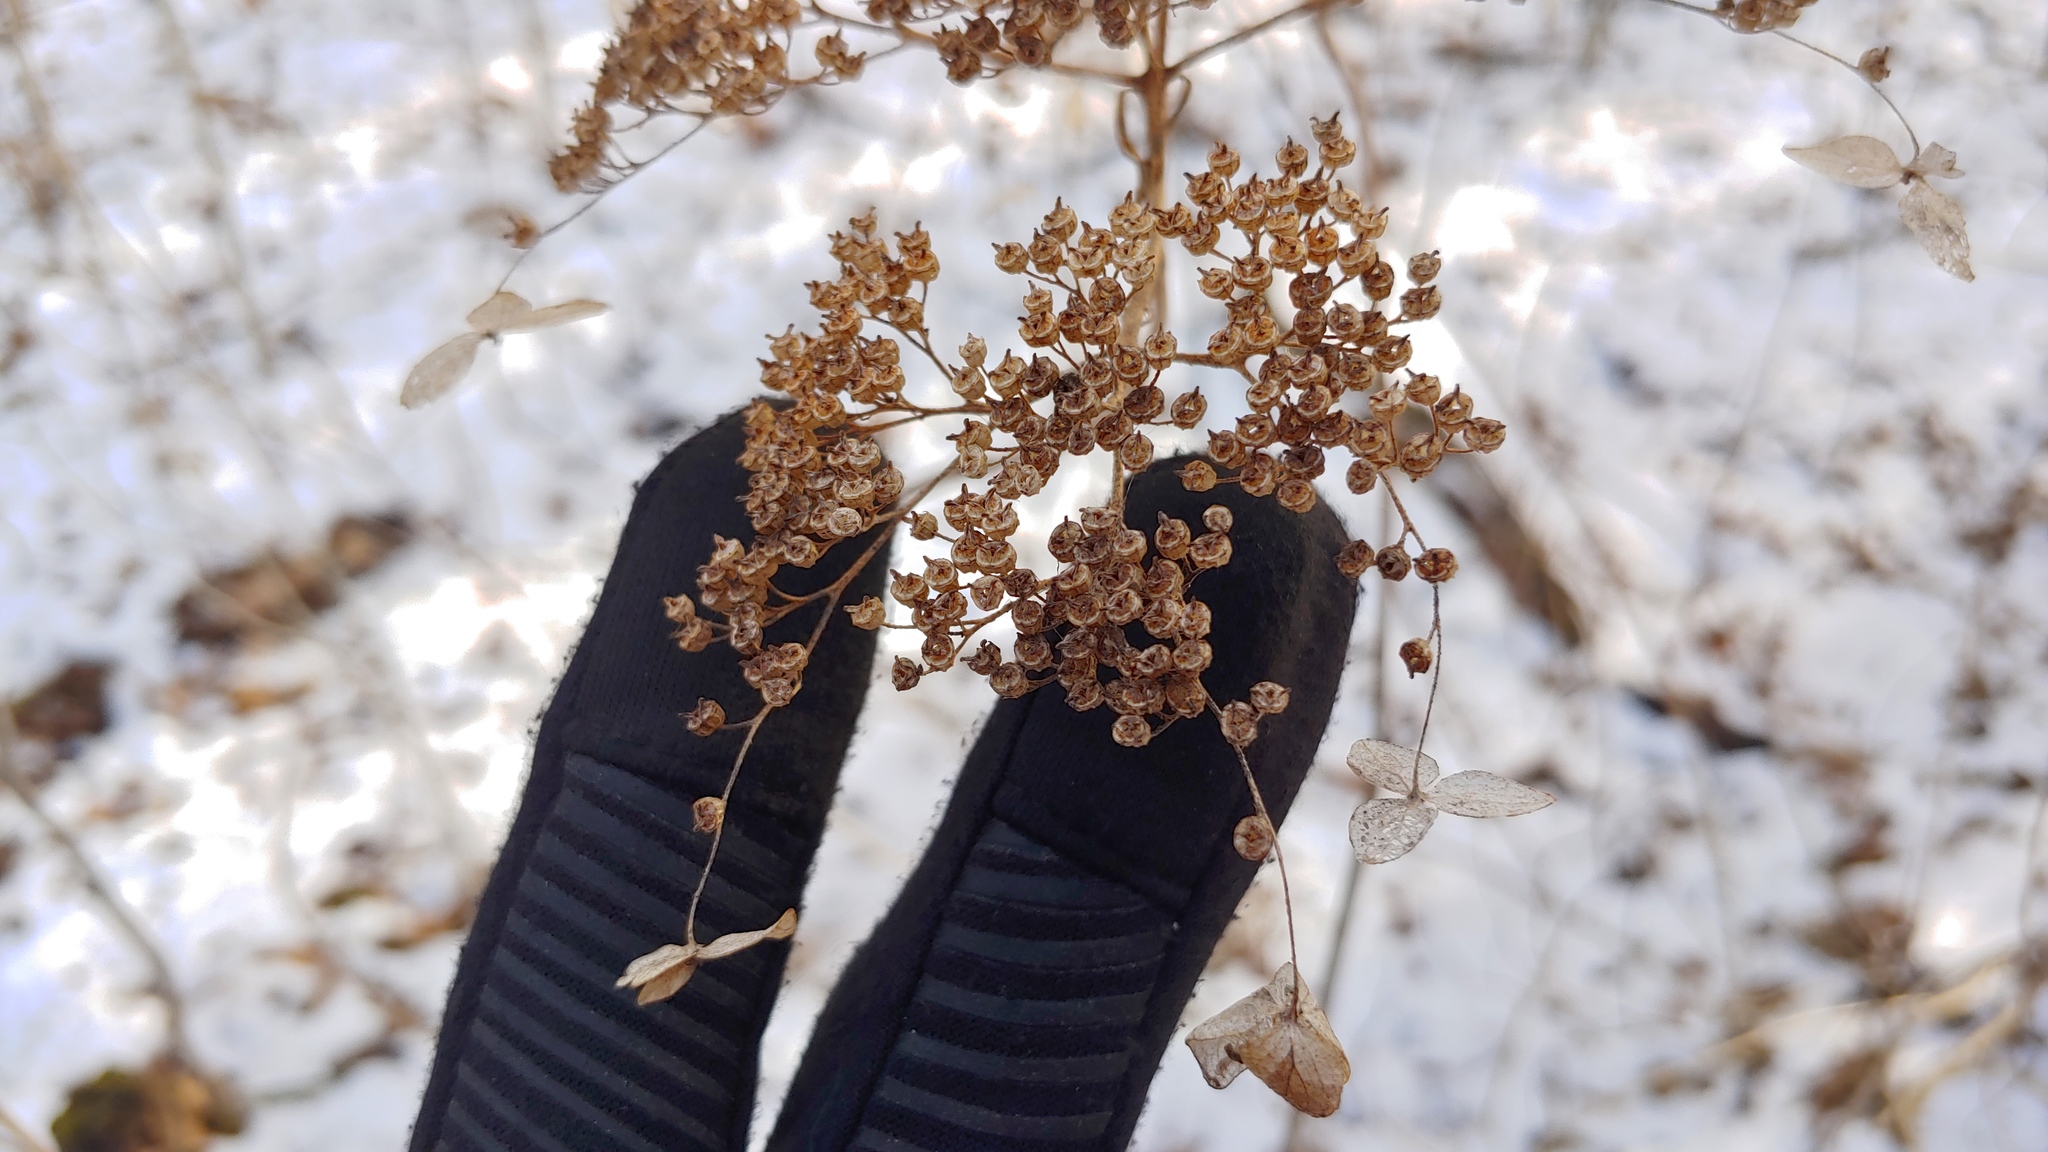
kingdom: Plantae
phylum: Tracheophyta
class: Magnoliopsida
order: Cornales
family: Hydrangeaceae
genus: Hydrangea
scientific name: Hydrangea arborescens
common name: Sevenbark
